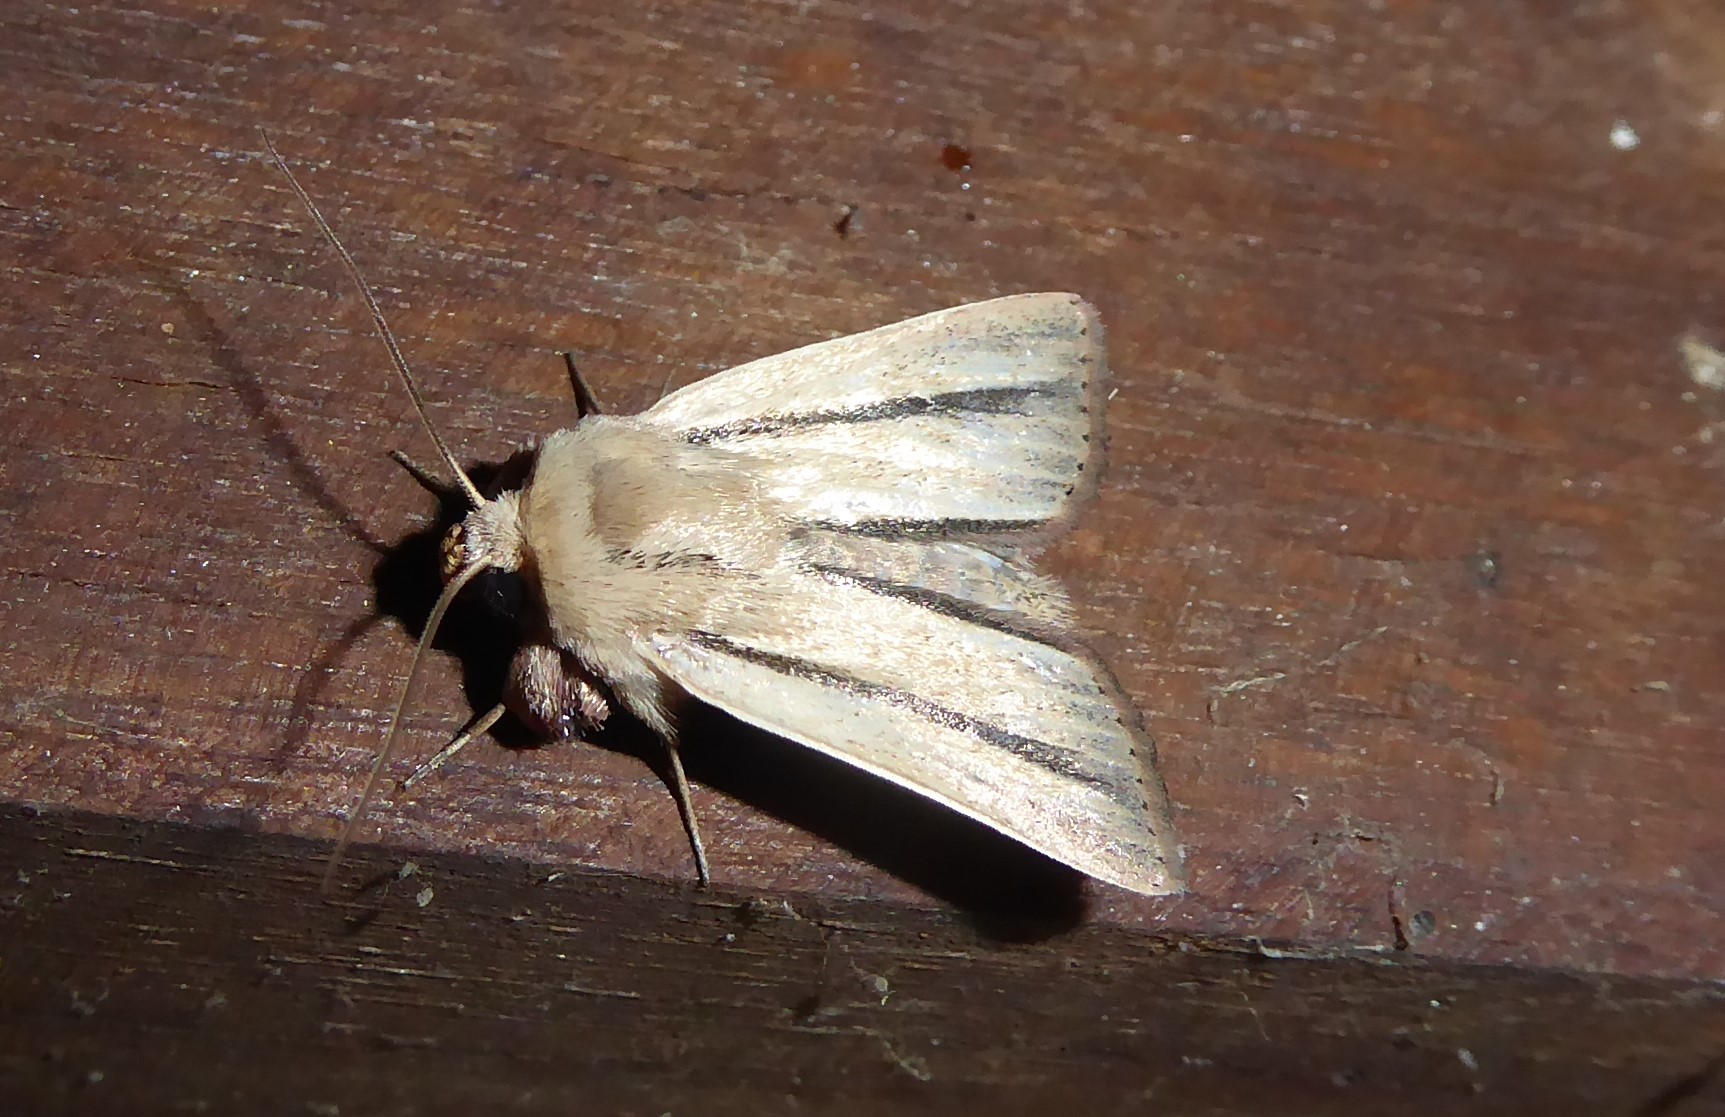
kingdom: Animalia
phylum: Arthropoda
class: Insecta
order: Lepidoptera
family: Noctuidae
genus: Leucania
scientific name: Leucania diatrecta
